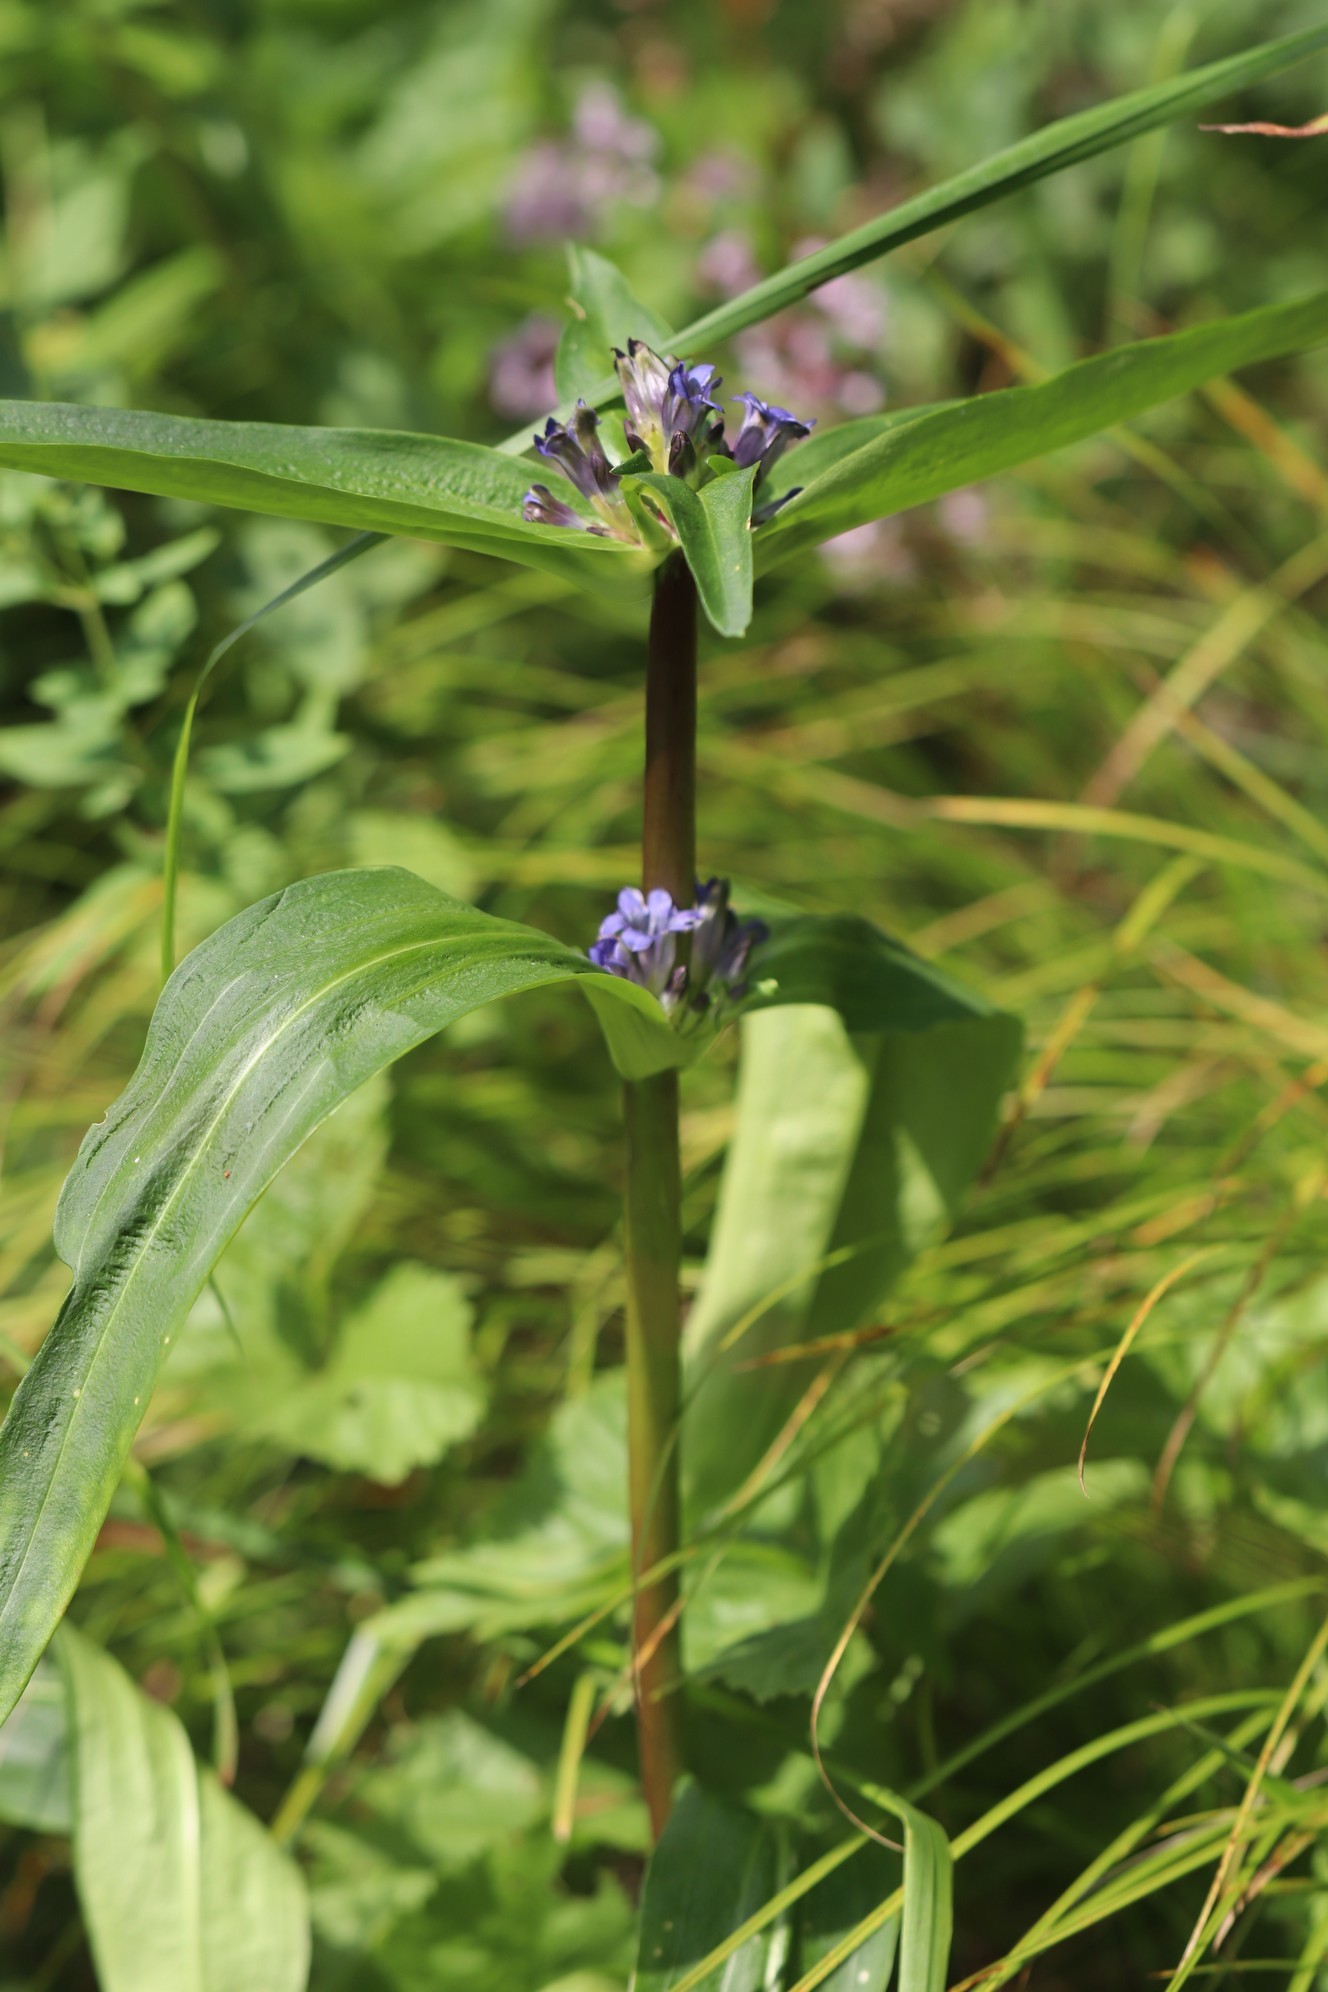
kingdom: Plantae
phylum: Tracheophyta
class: Magnoliopsida
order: Gentianales
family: Gentianaceae
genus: Gentiana
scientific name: Gentiana macrophylla
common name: Large-leaf gentian
